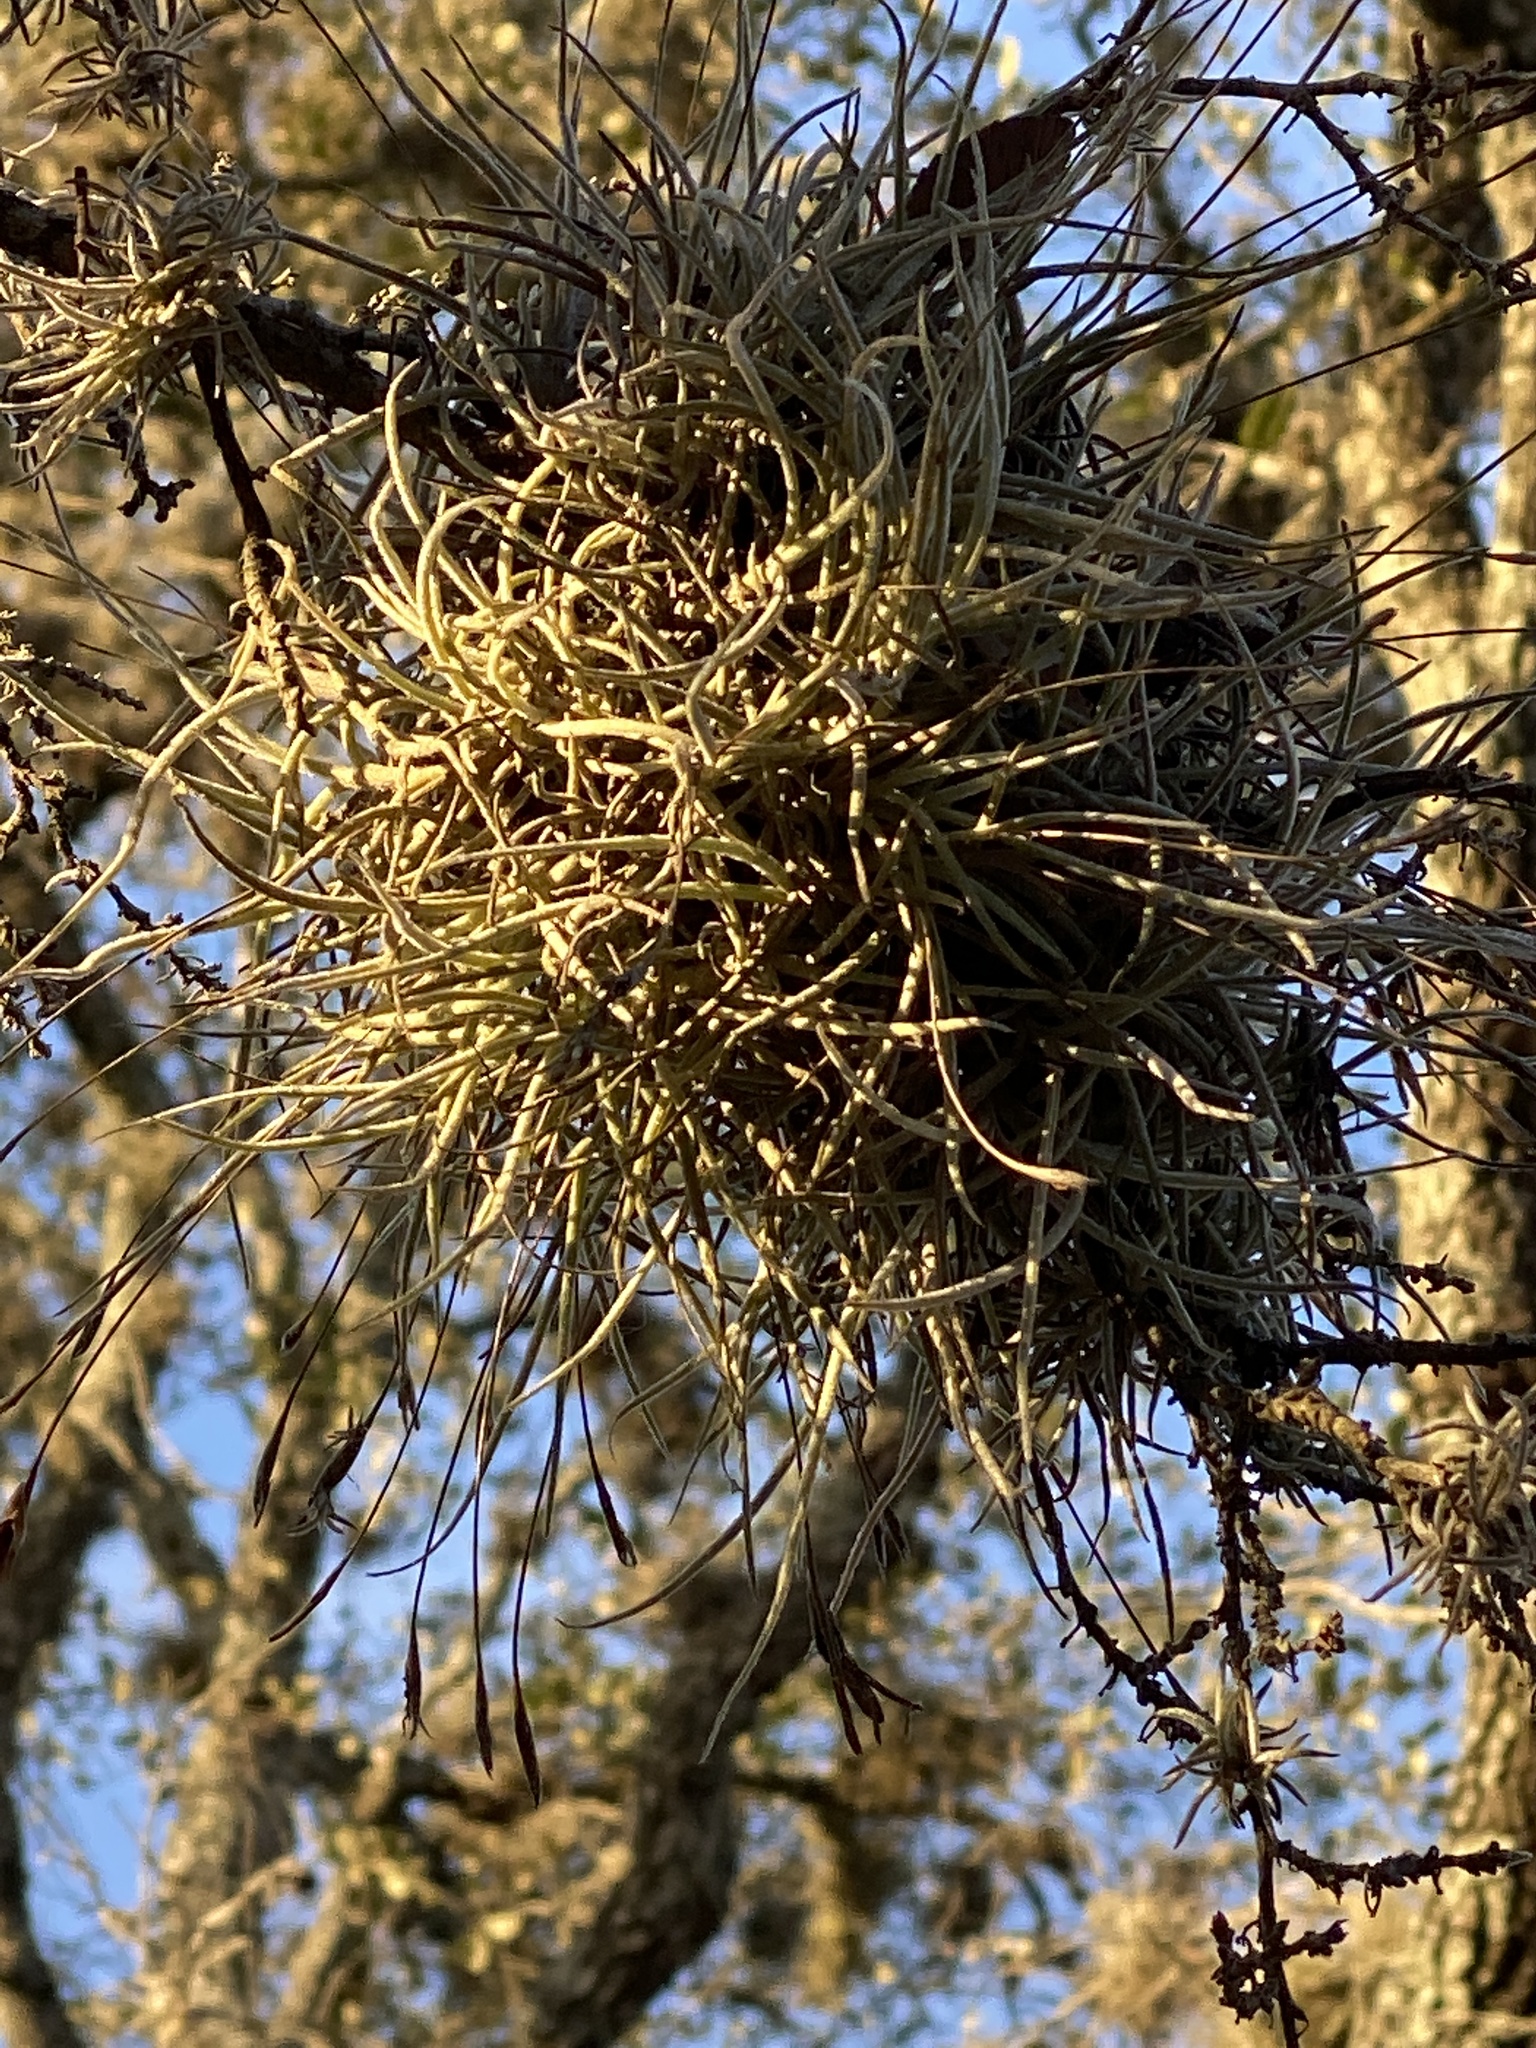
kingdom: Plantae
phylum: Tracheophyta
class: Liliopsida
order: Poales
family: Bromeliaceae
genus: Tillandsia
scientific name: Tillandsia recurvata
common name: Small ballmoss
